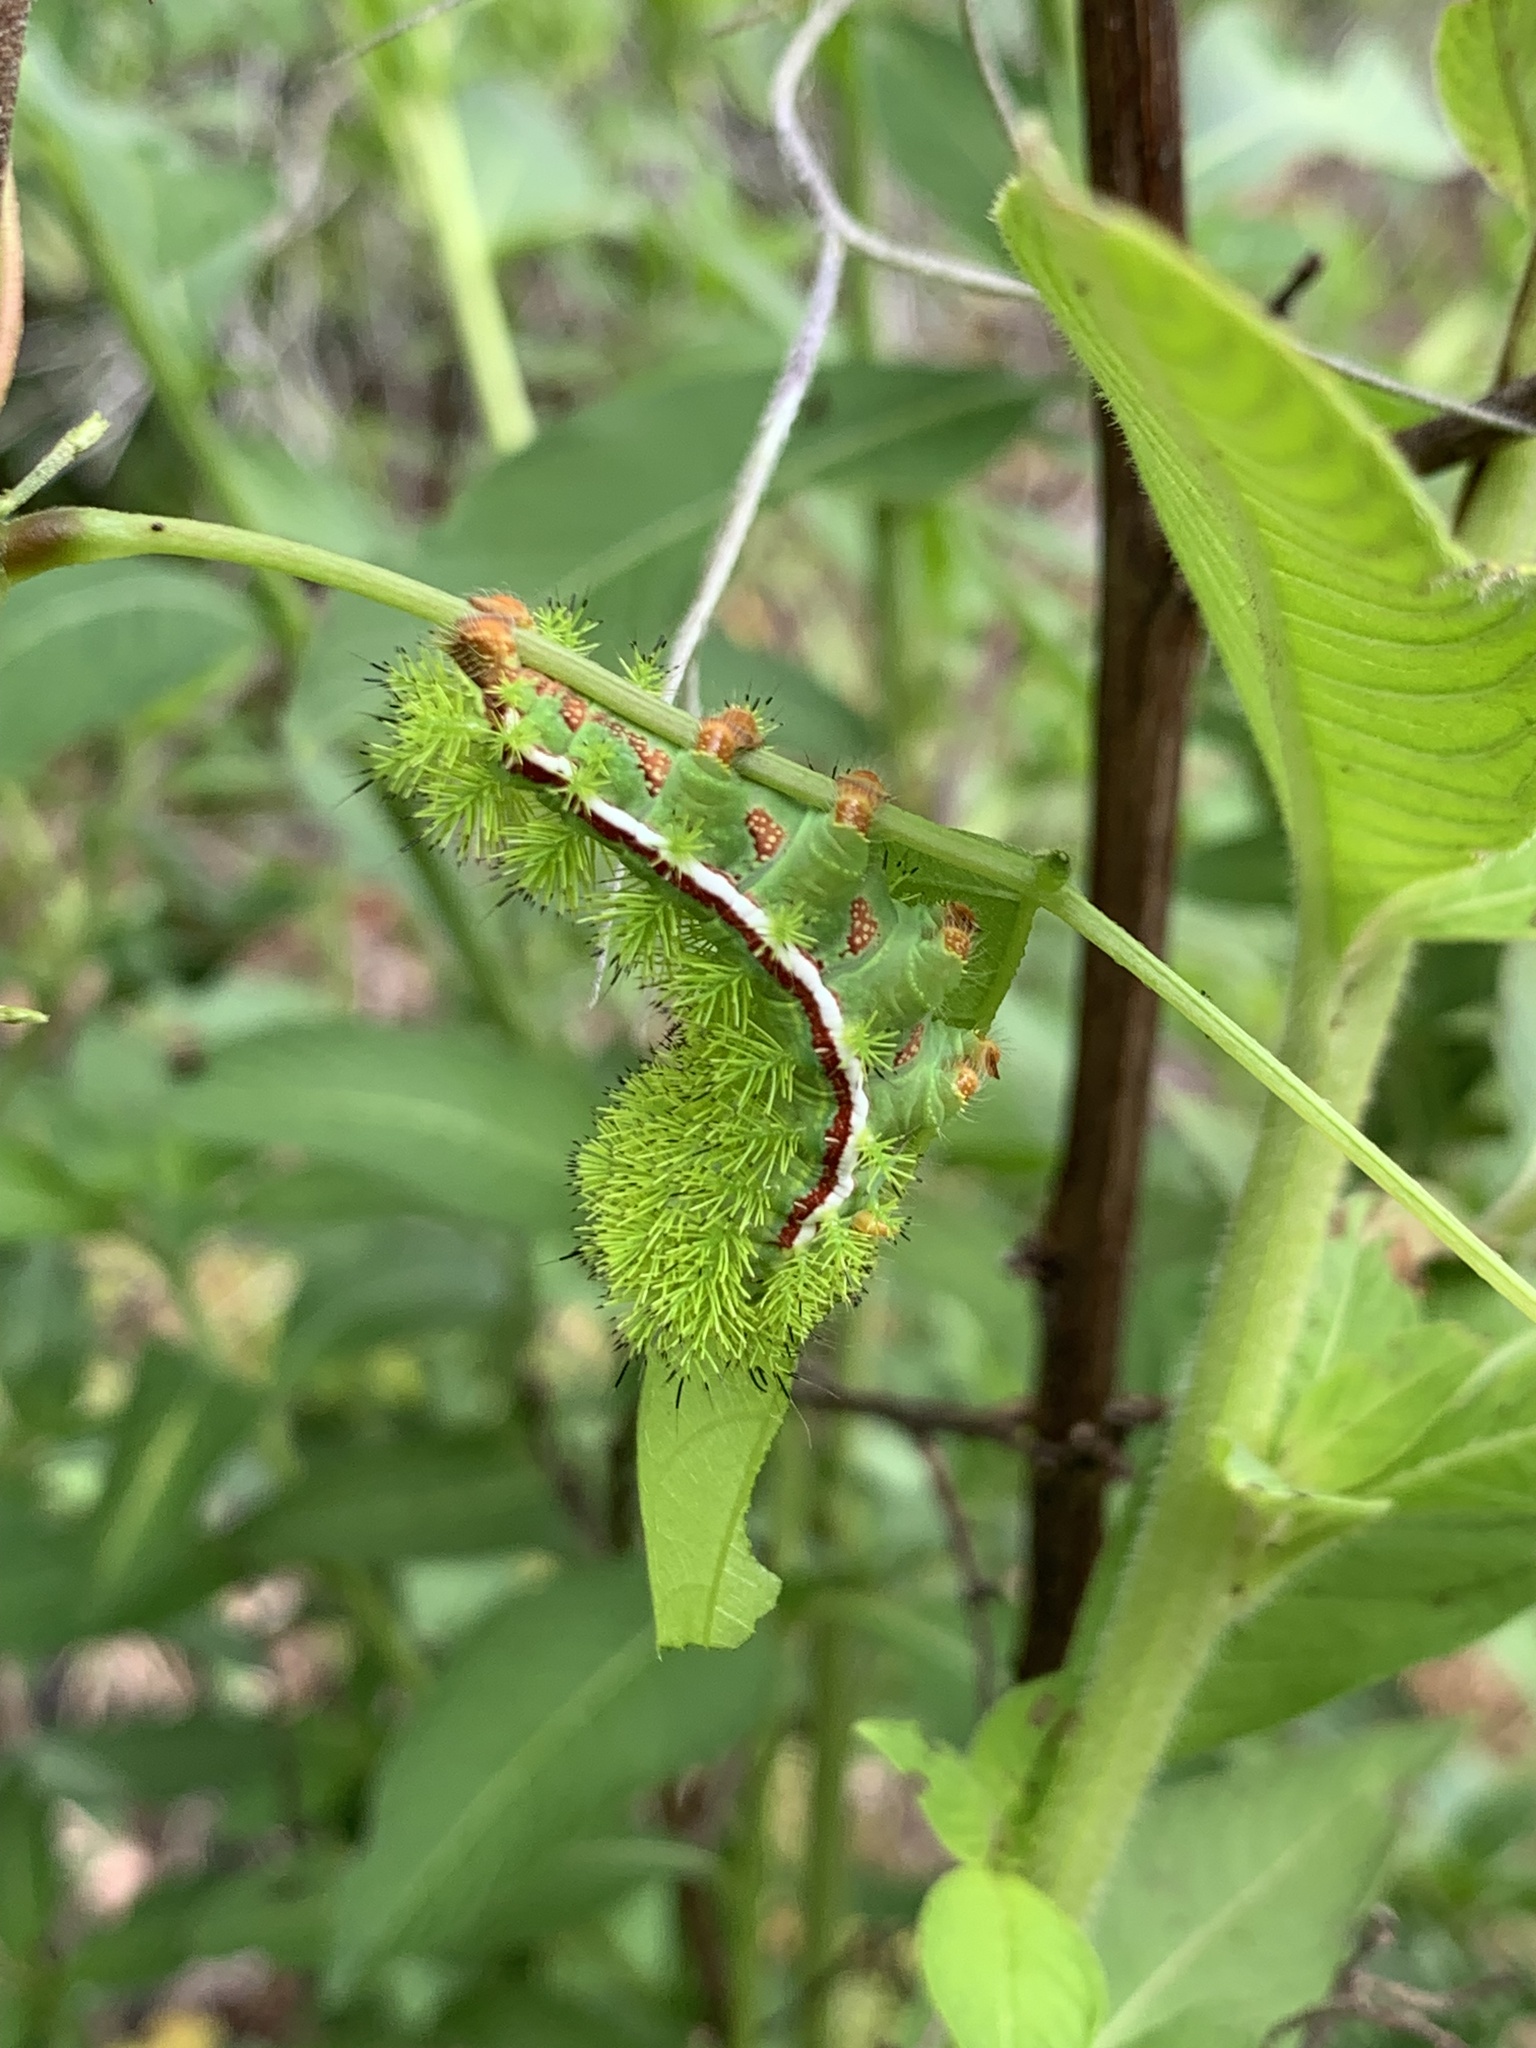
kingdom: Animalia
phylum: Arthropoda
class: Insecta
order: Lepidoptera
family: Saturniidae
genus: Automeris
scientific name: Automeris io
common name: Io moth
